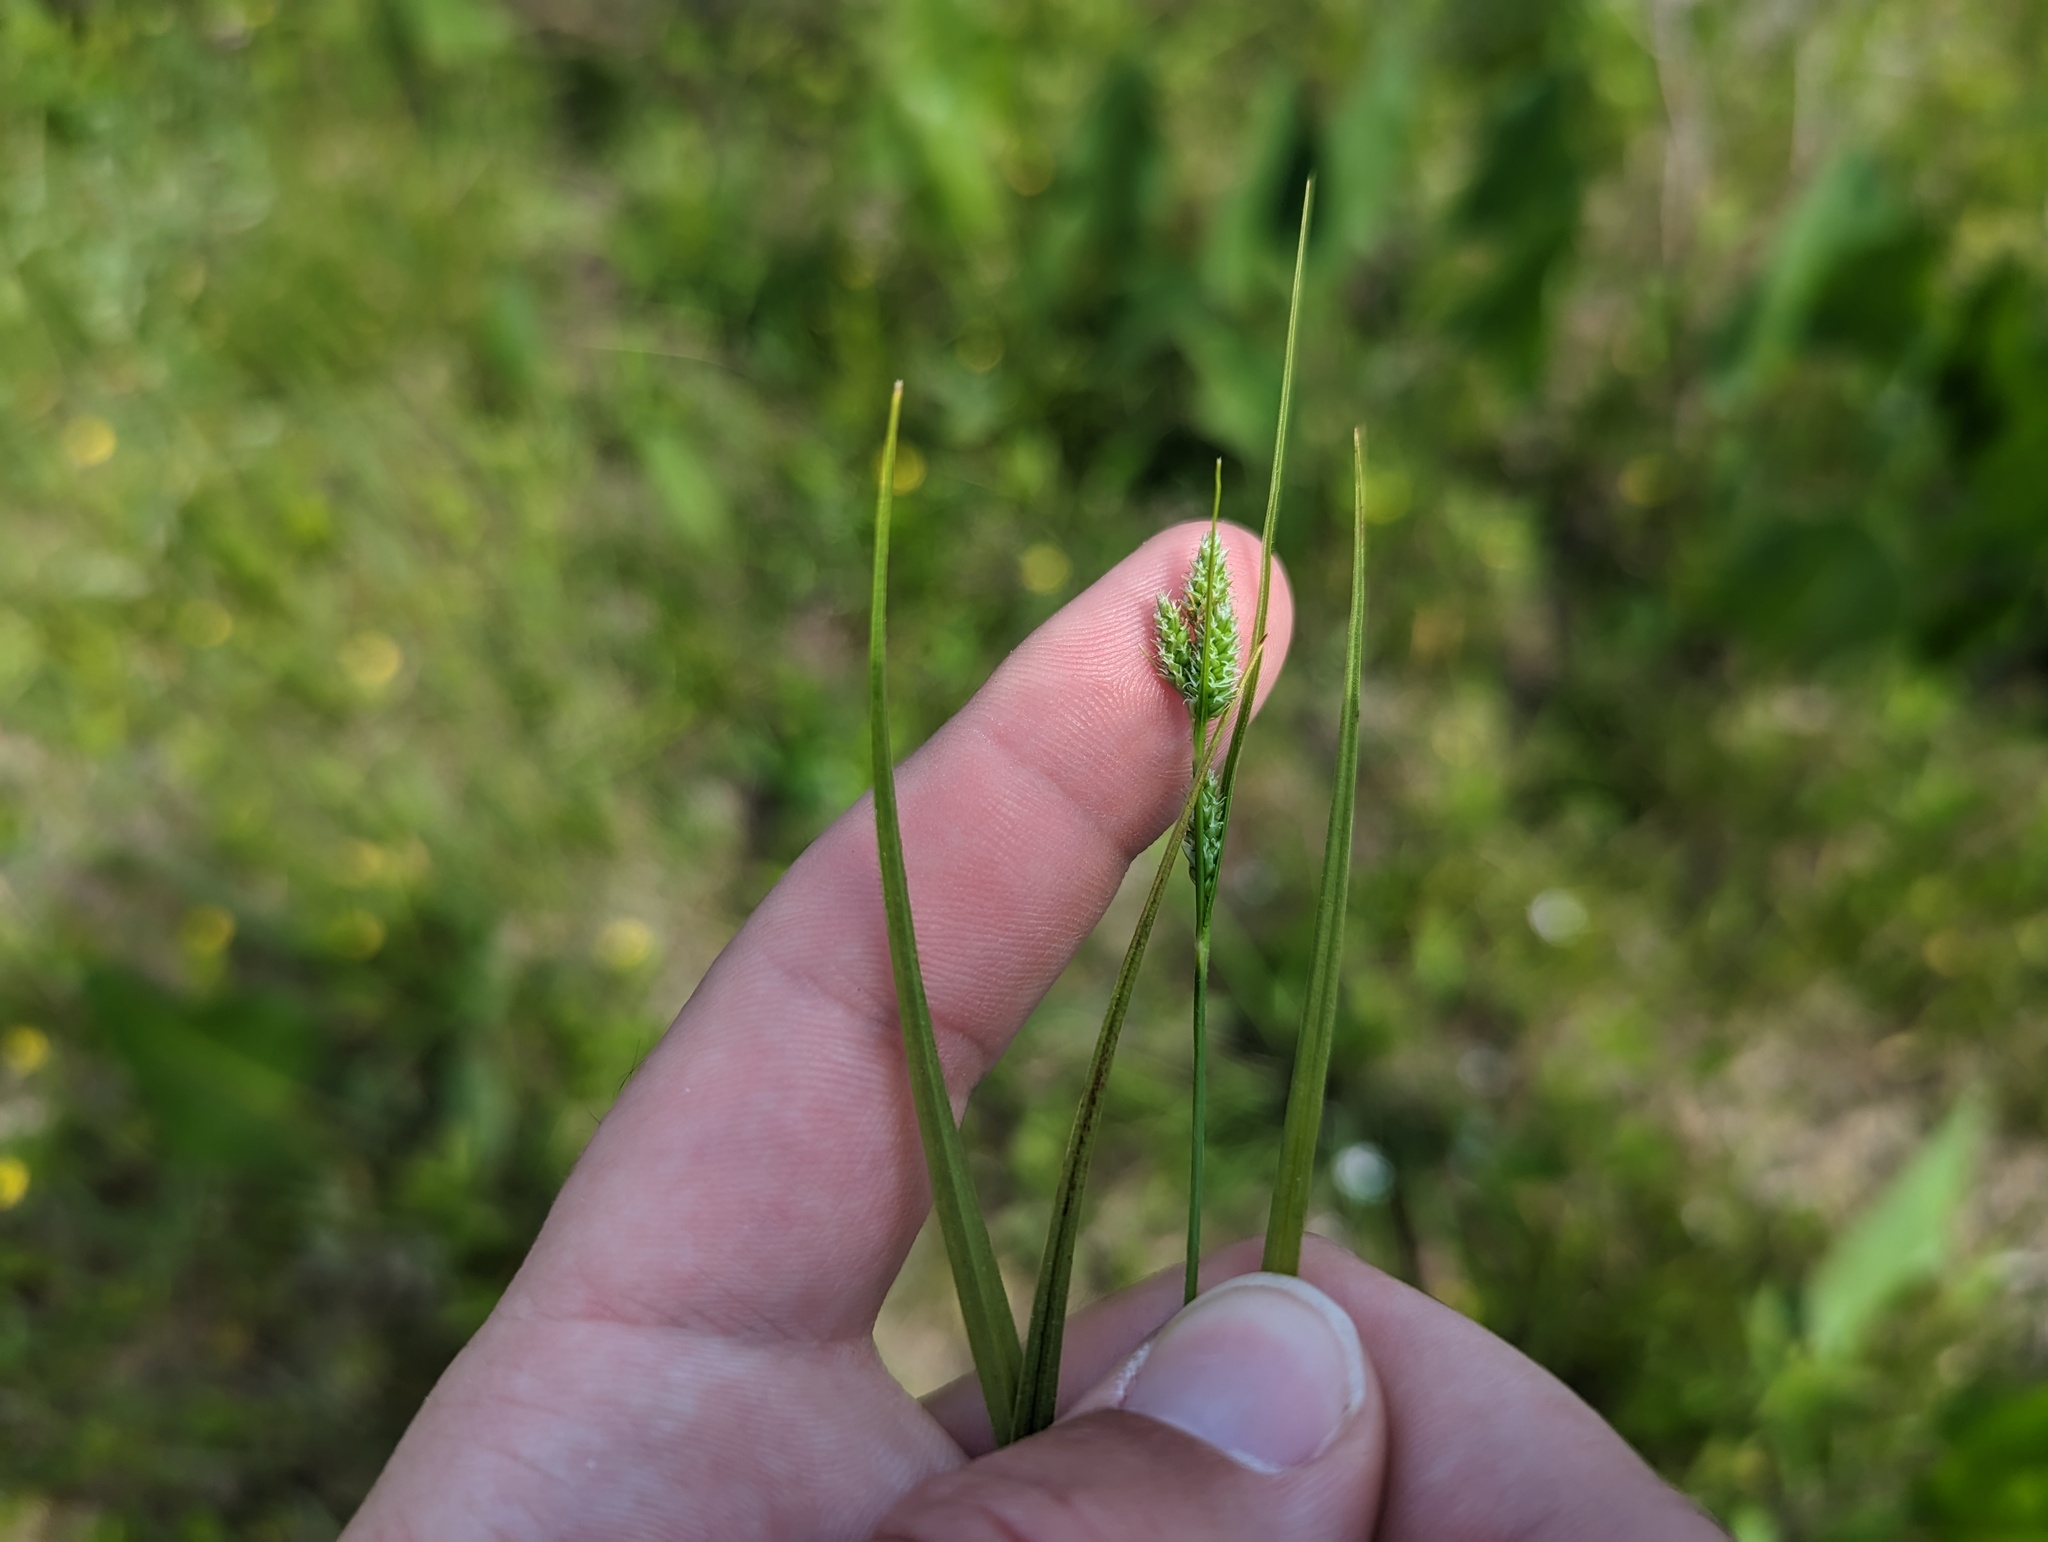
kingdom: Plantae
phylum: Tracheophyta
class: Liliopsida
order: Poales
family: Cyperaceae
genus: Carex
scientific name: Carex hirsutella
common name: Fuzzy wuzzy sedge
